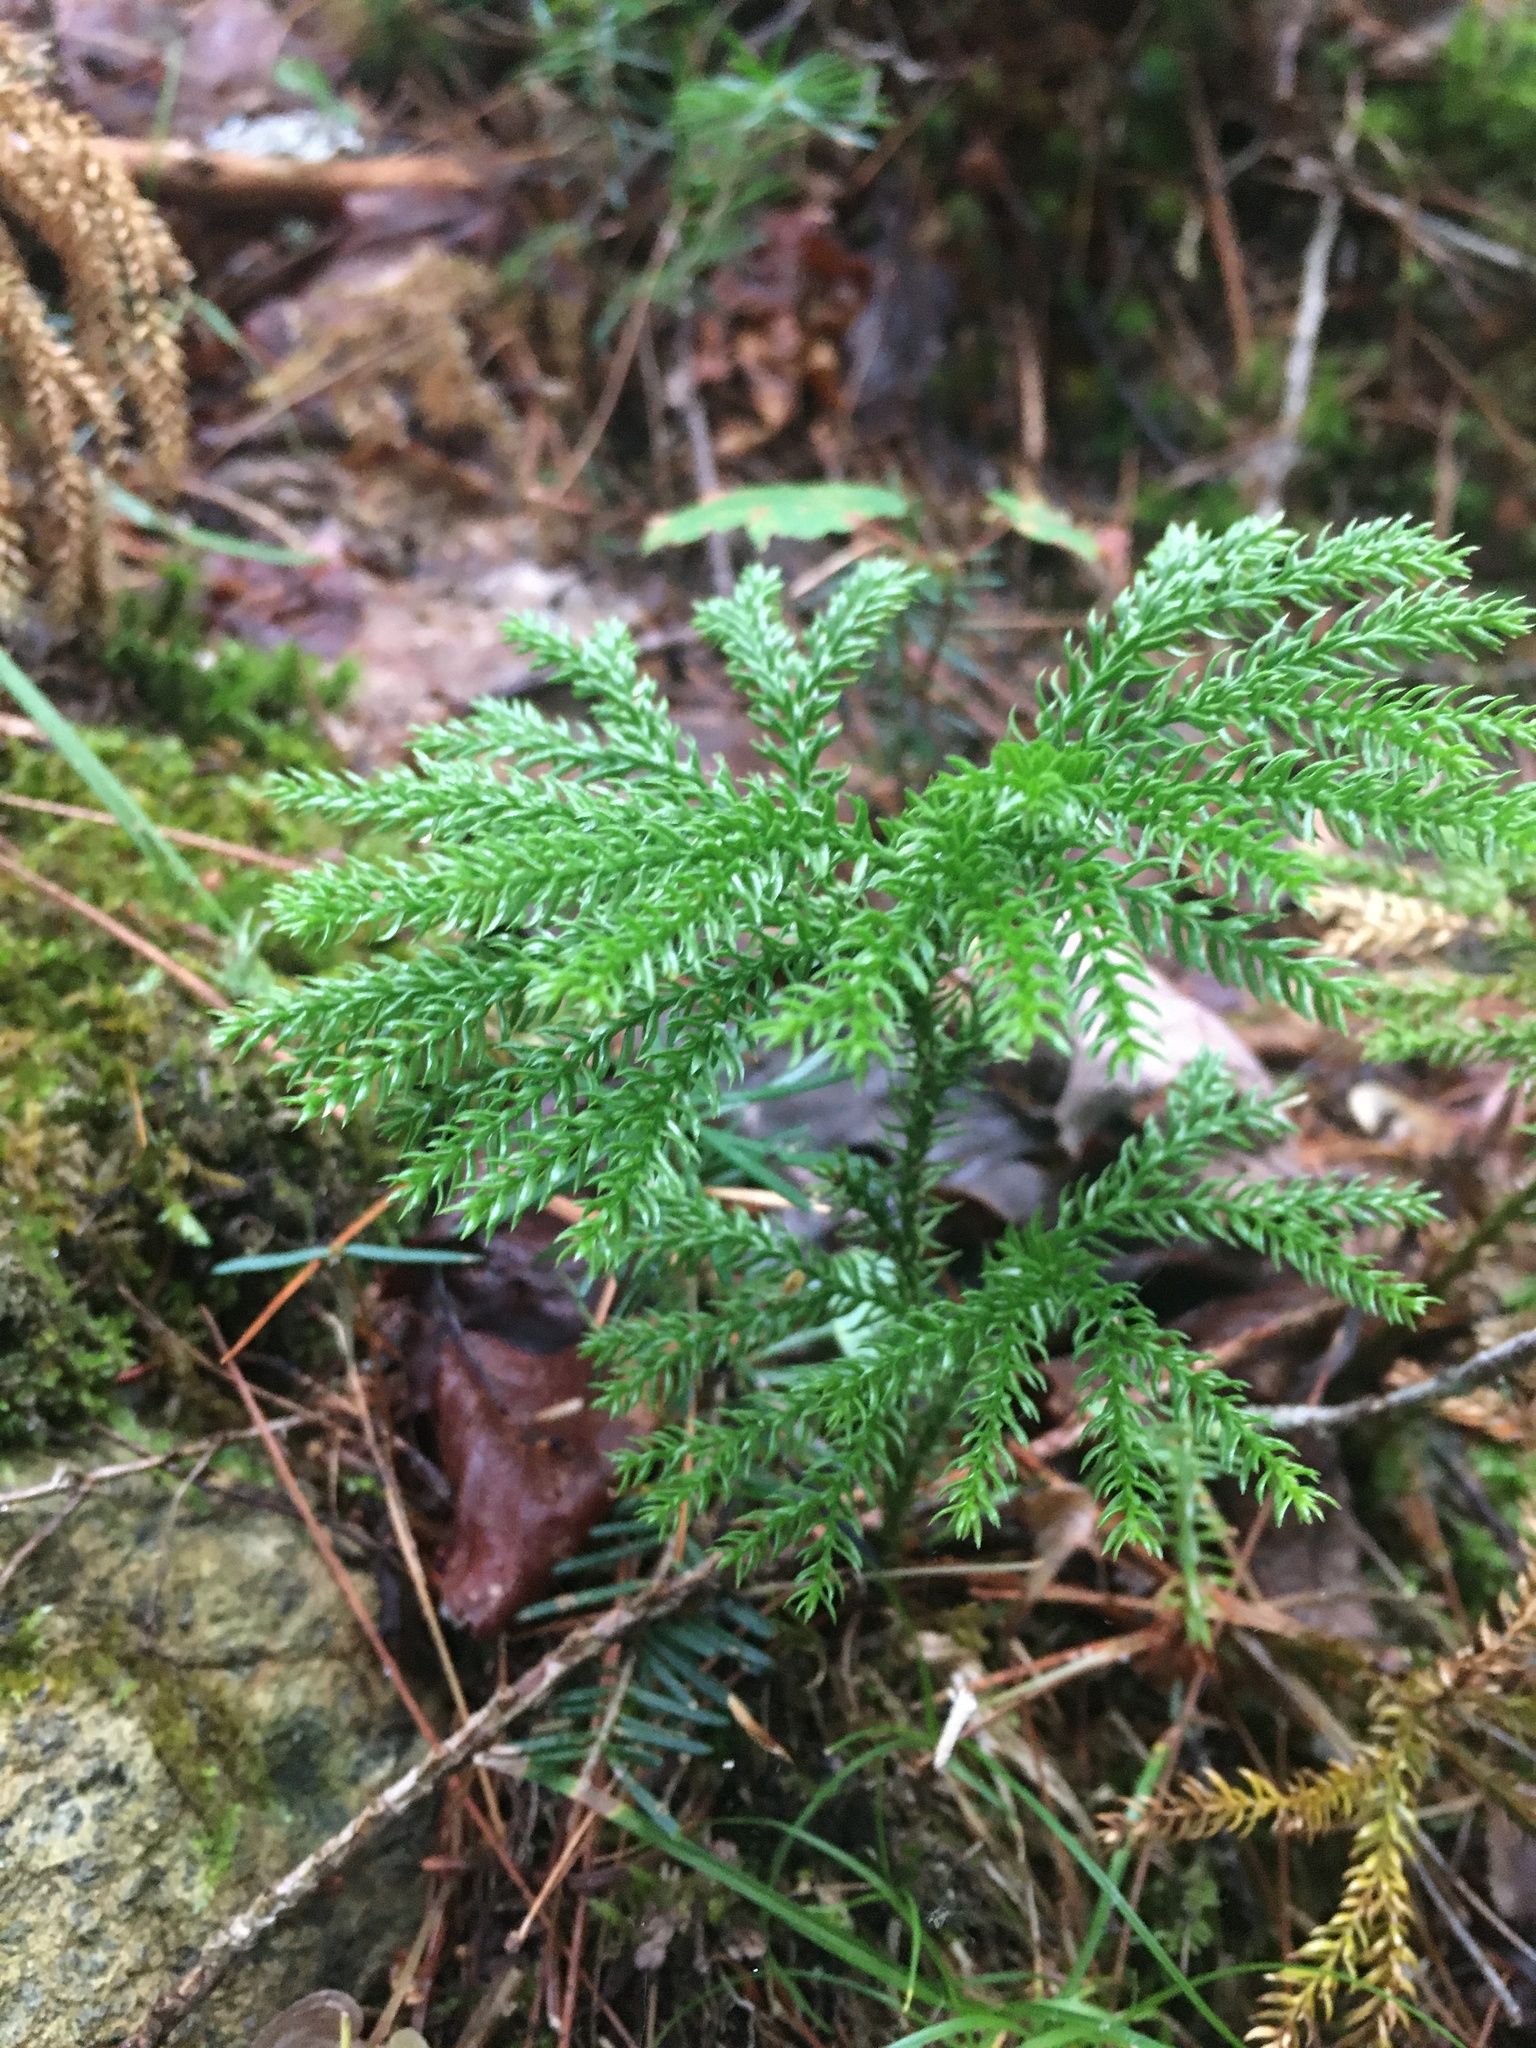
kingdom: Plantae
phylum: Tracheophyta
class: Lycopodiopsida
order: Lycopodiales
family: Lycopodiaceae
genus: Dendrolycopodium
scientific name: Dendrolycopodium dendroideum
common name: Northern tree-clubmoss
